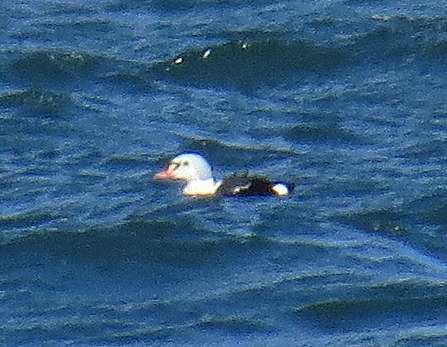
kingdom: Animalia
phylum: Chordata
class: Aves
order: Anseriformes
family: Anatidae
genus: Somateria
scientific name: Somateria spectabilis
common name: King eider
